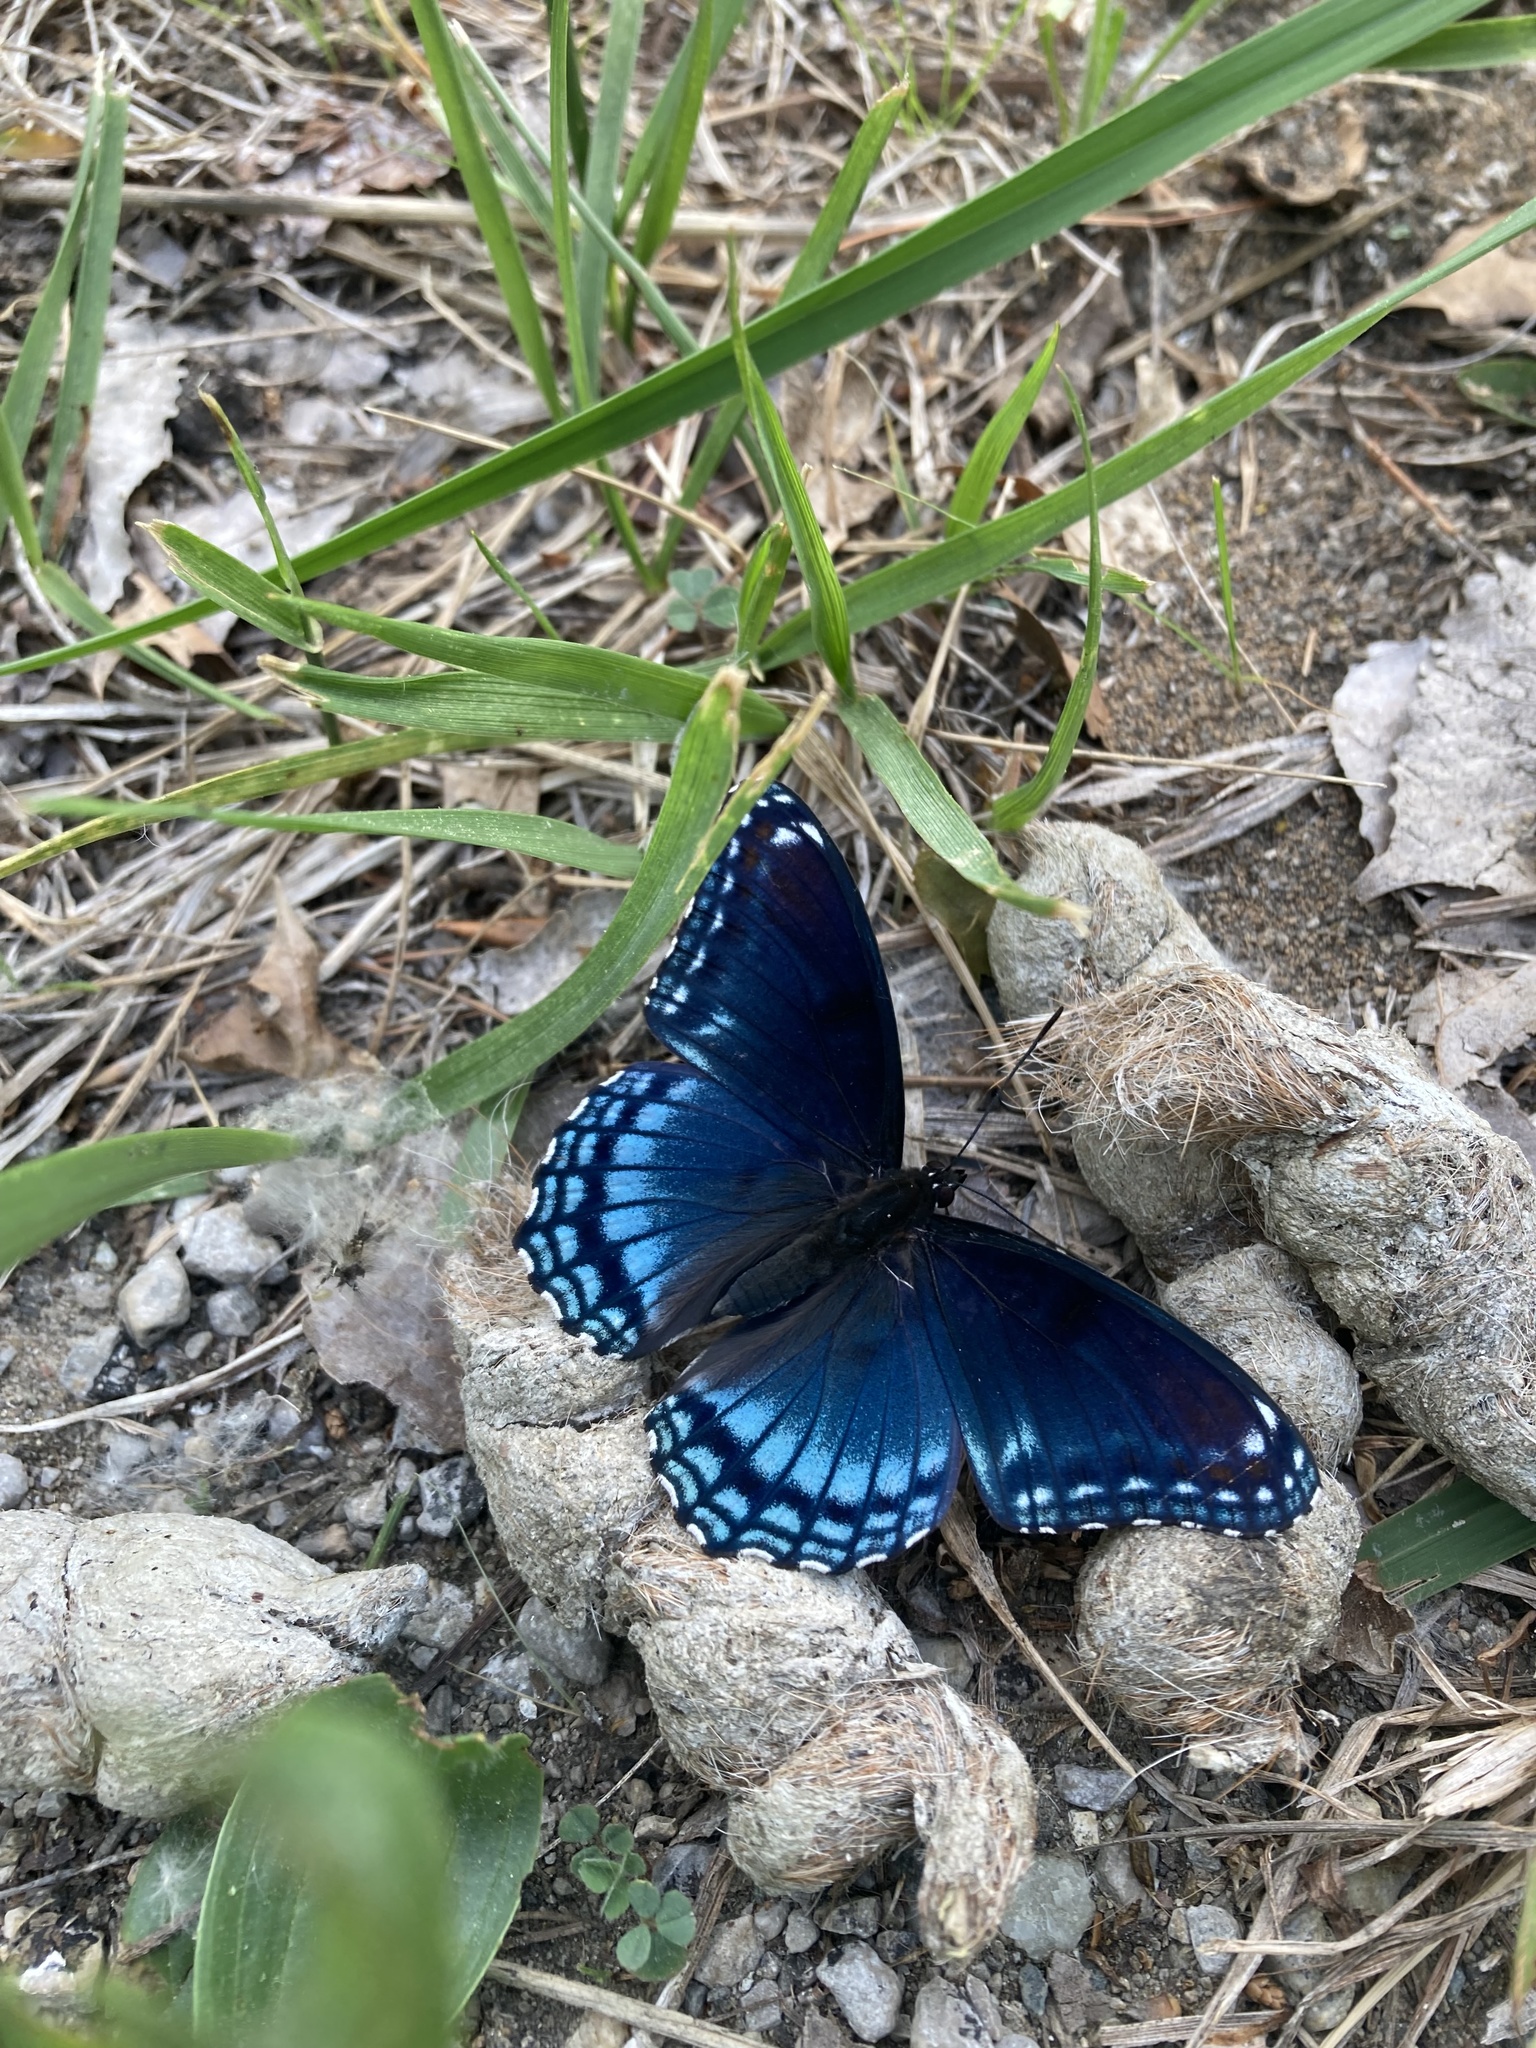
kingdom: Animalia
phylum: Arthropoda
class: Insecta
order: Lepidoptera
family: Nymphalidae
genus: Limenitis
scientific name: Limenitis astyanax
